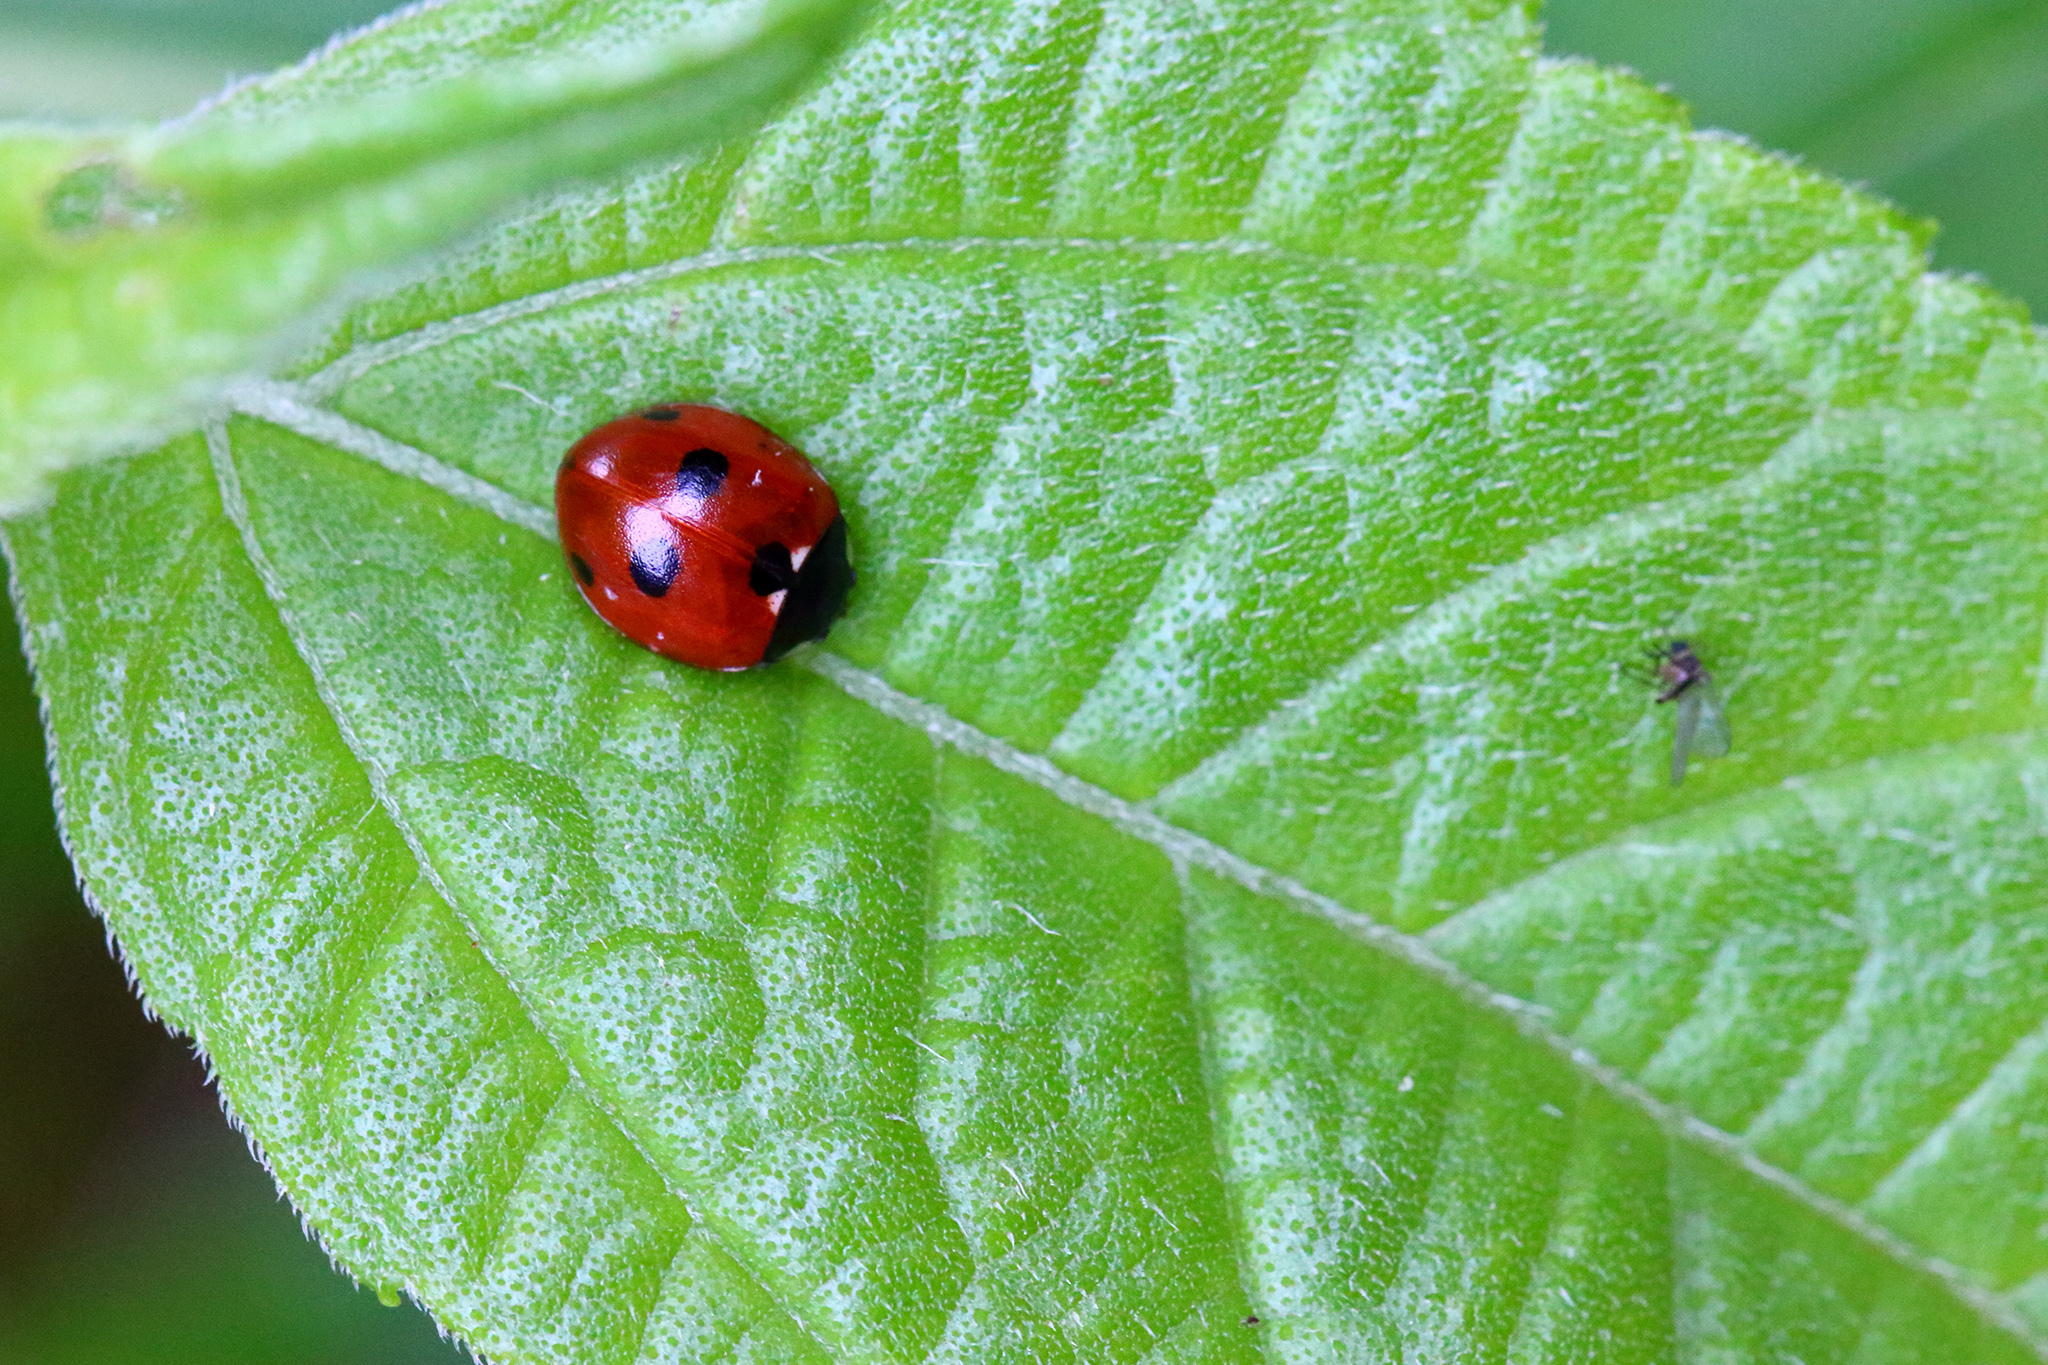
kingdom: Animalia
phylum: Arthropoda
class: Insecta
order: Coleoptera
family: Coccinellidae
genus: Coccinella
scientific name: Coccinella quinquepunctata
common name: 5-spot ladybird
